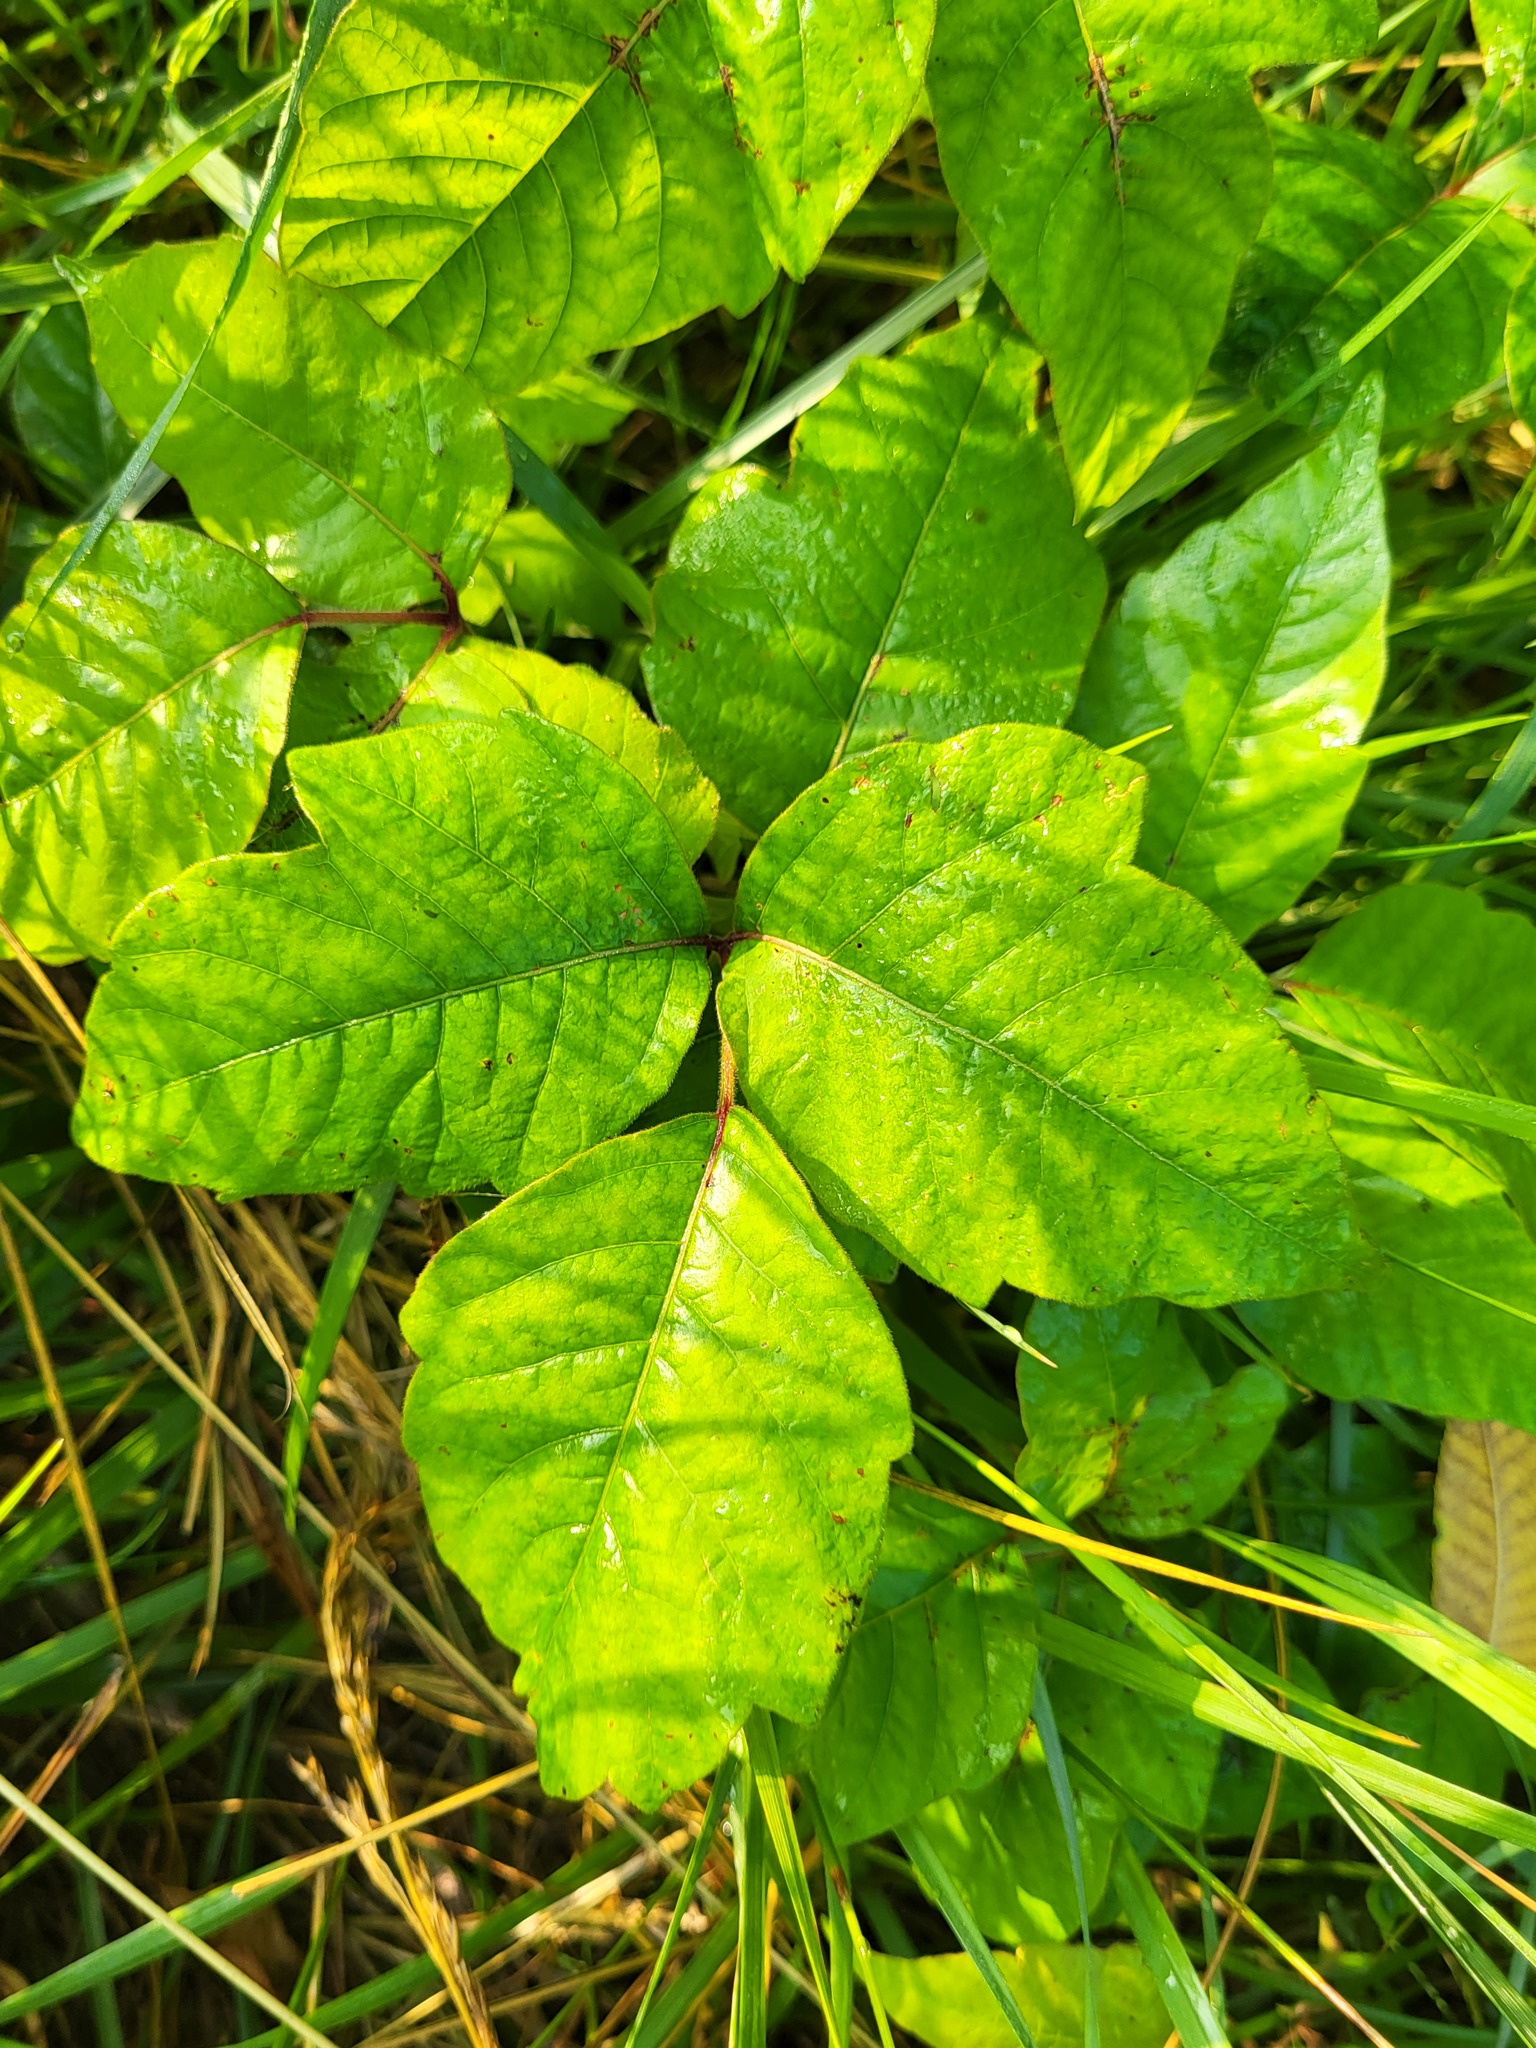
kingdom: Plantae
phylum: Tracheophyta
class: Magnoliopsida
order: Sapindales
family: Anacardiaceae
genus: Toxicodendron
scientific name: Toxicodendron radicans
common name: Poison ivy
